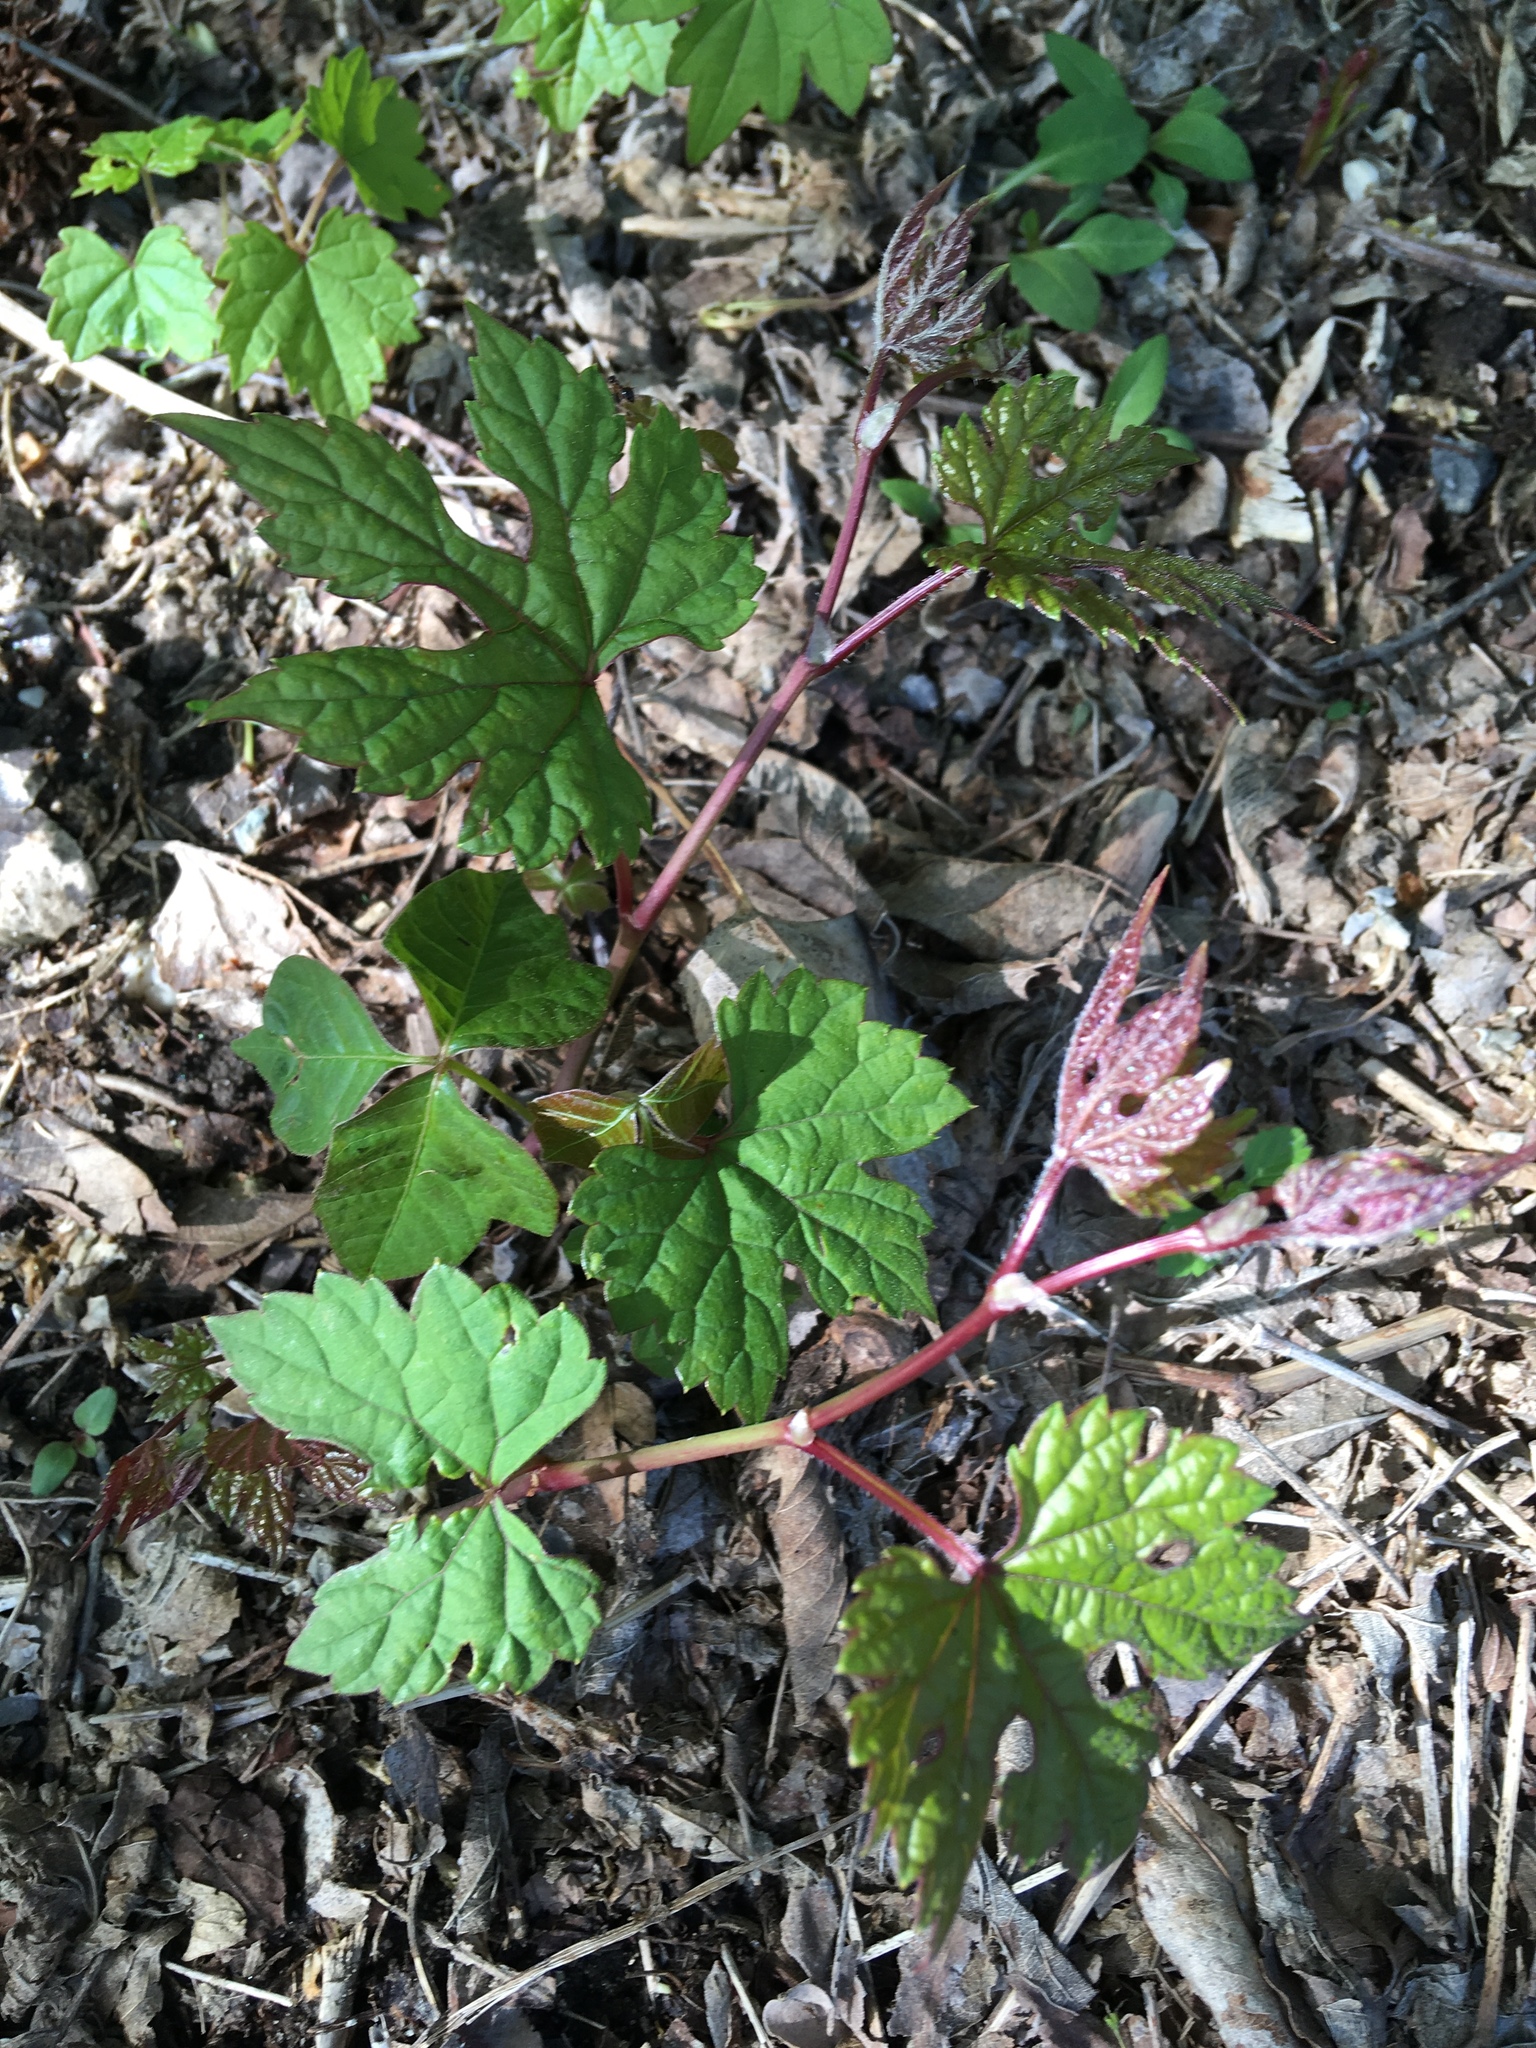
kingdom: Plantae
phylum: Tracheophyta
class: Magnoliopsida
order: Vitales
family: Vitaceae
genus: Ampelopsis
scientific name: Ampelopsis glandulosa
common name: Amur peppervine
